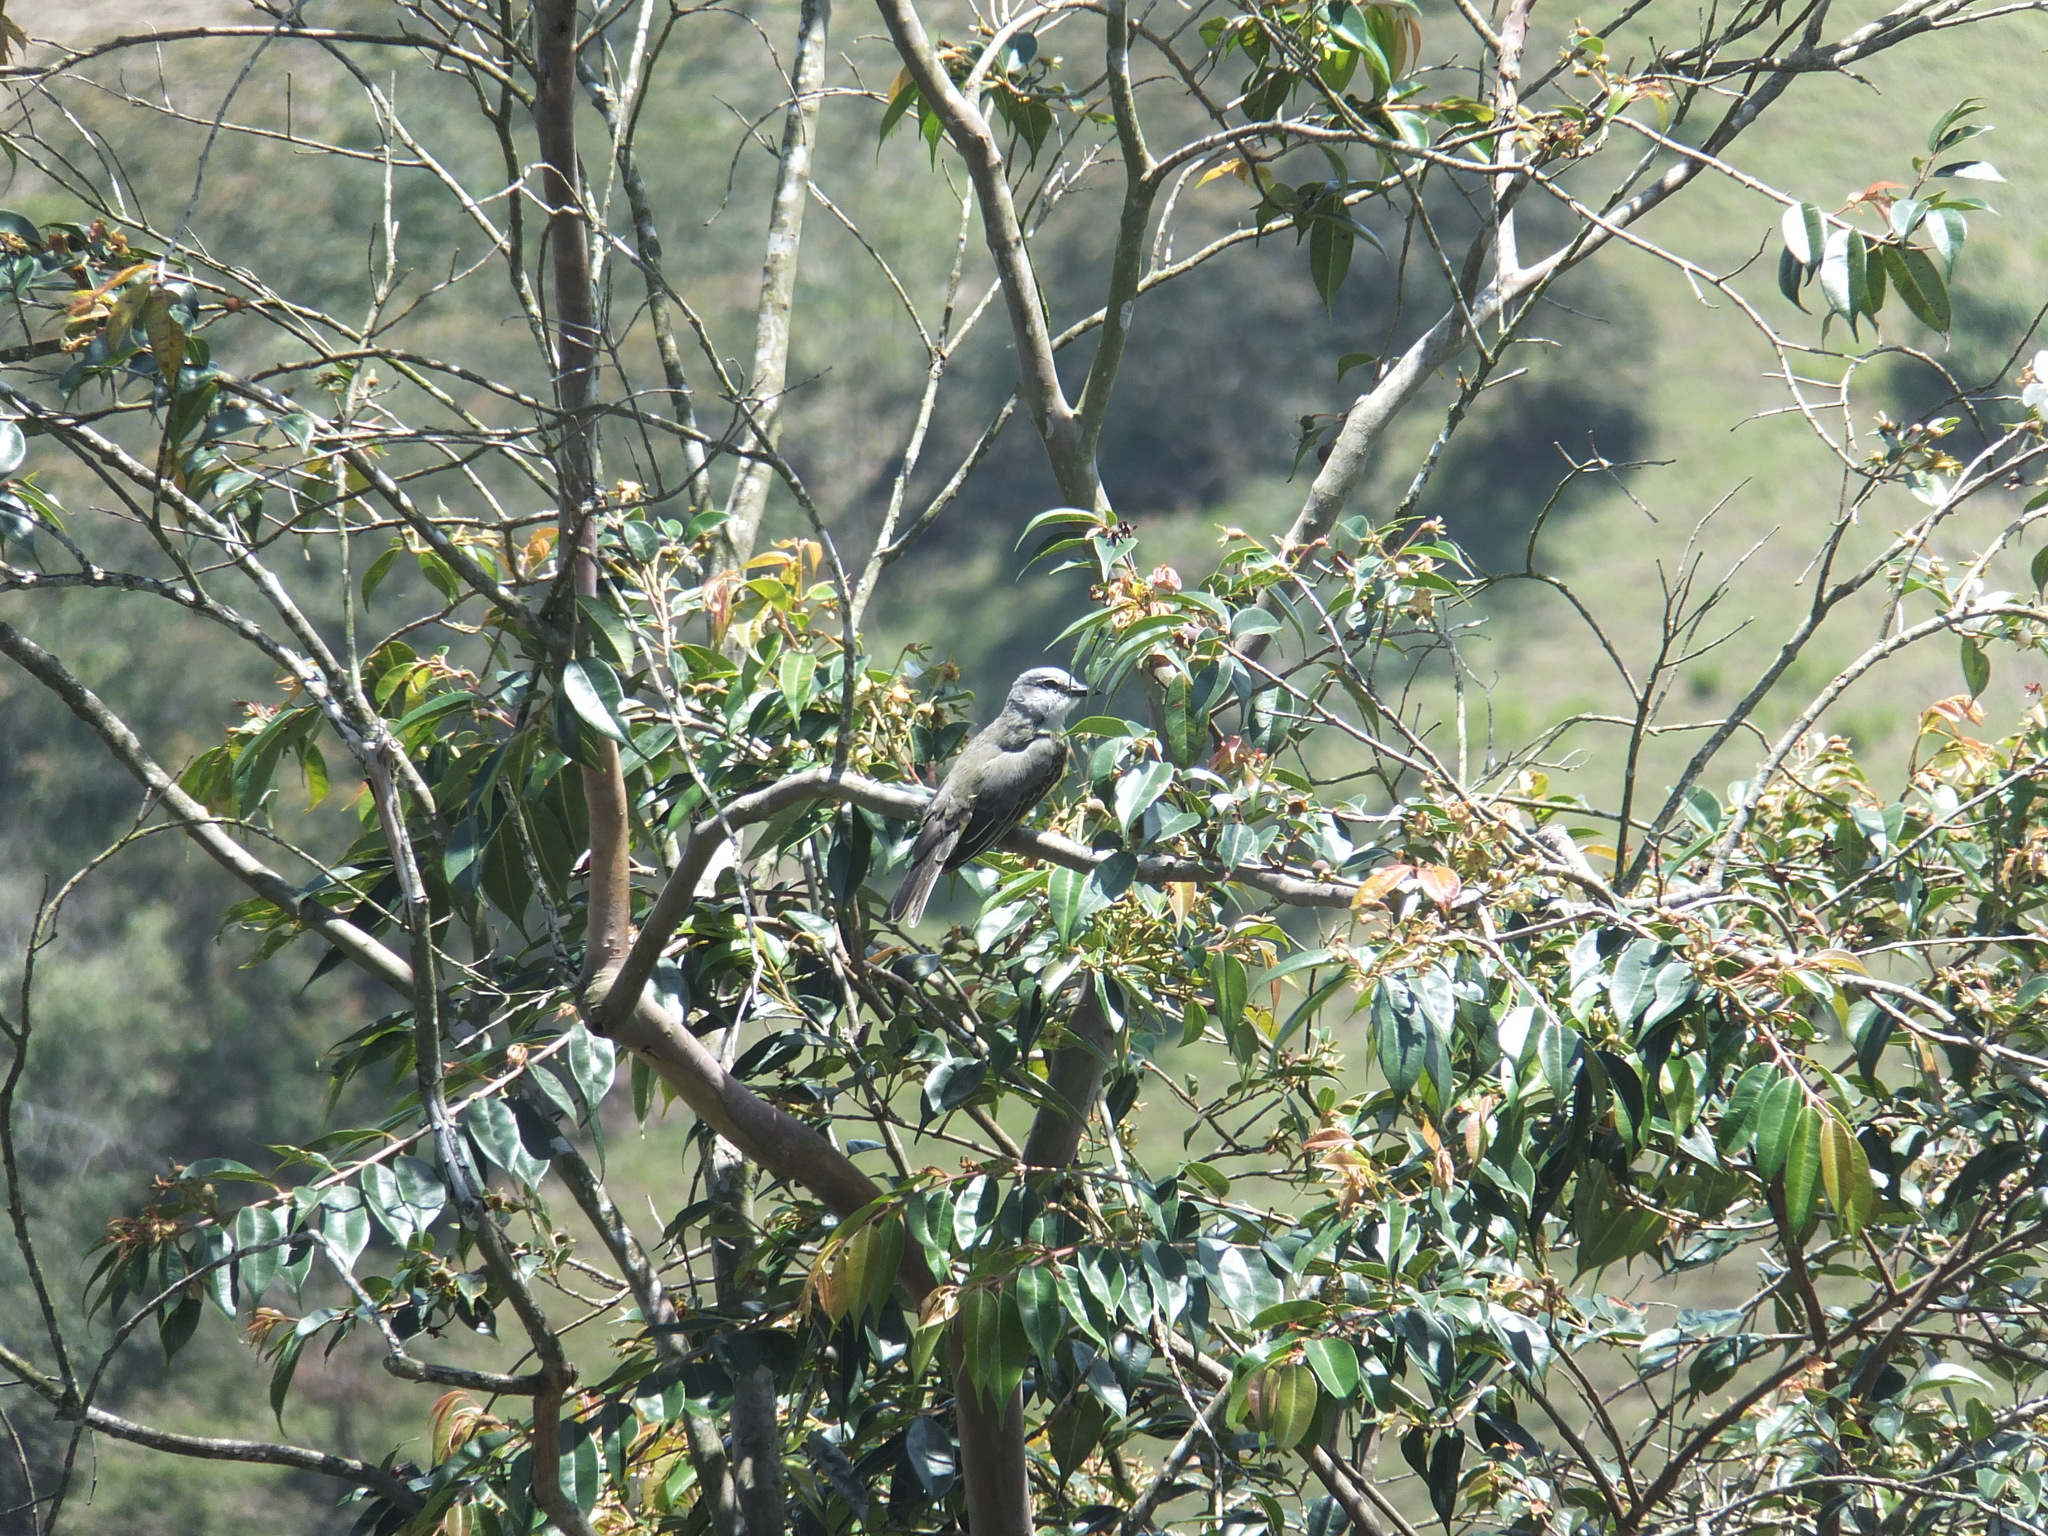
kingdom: Animalia
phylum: Chordata
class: Aves
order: Passeriformes
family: Tyrannidae
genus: Tyrannus
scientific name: Tyrannus melancholicus
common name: Tropical kingbird
